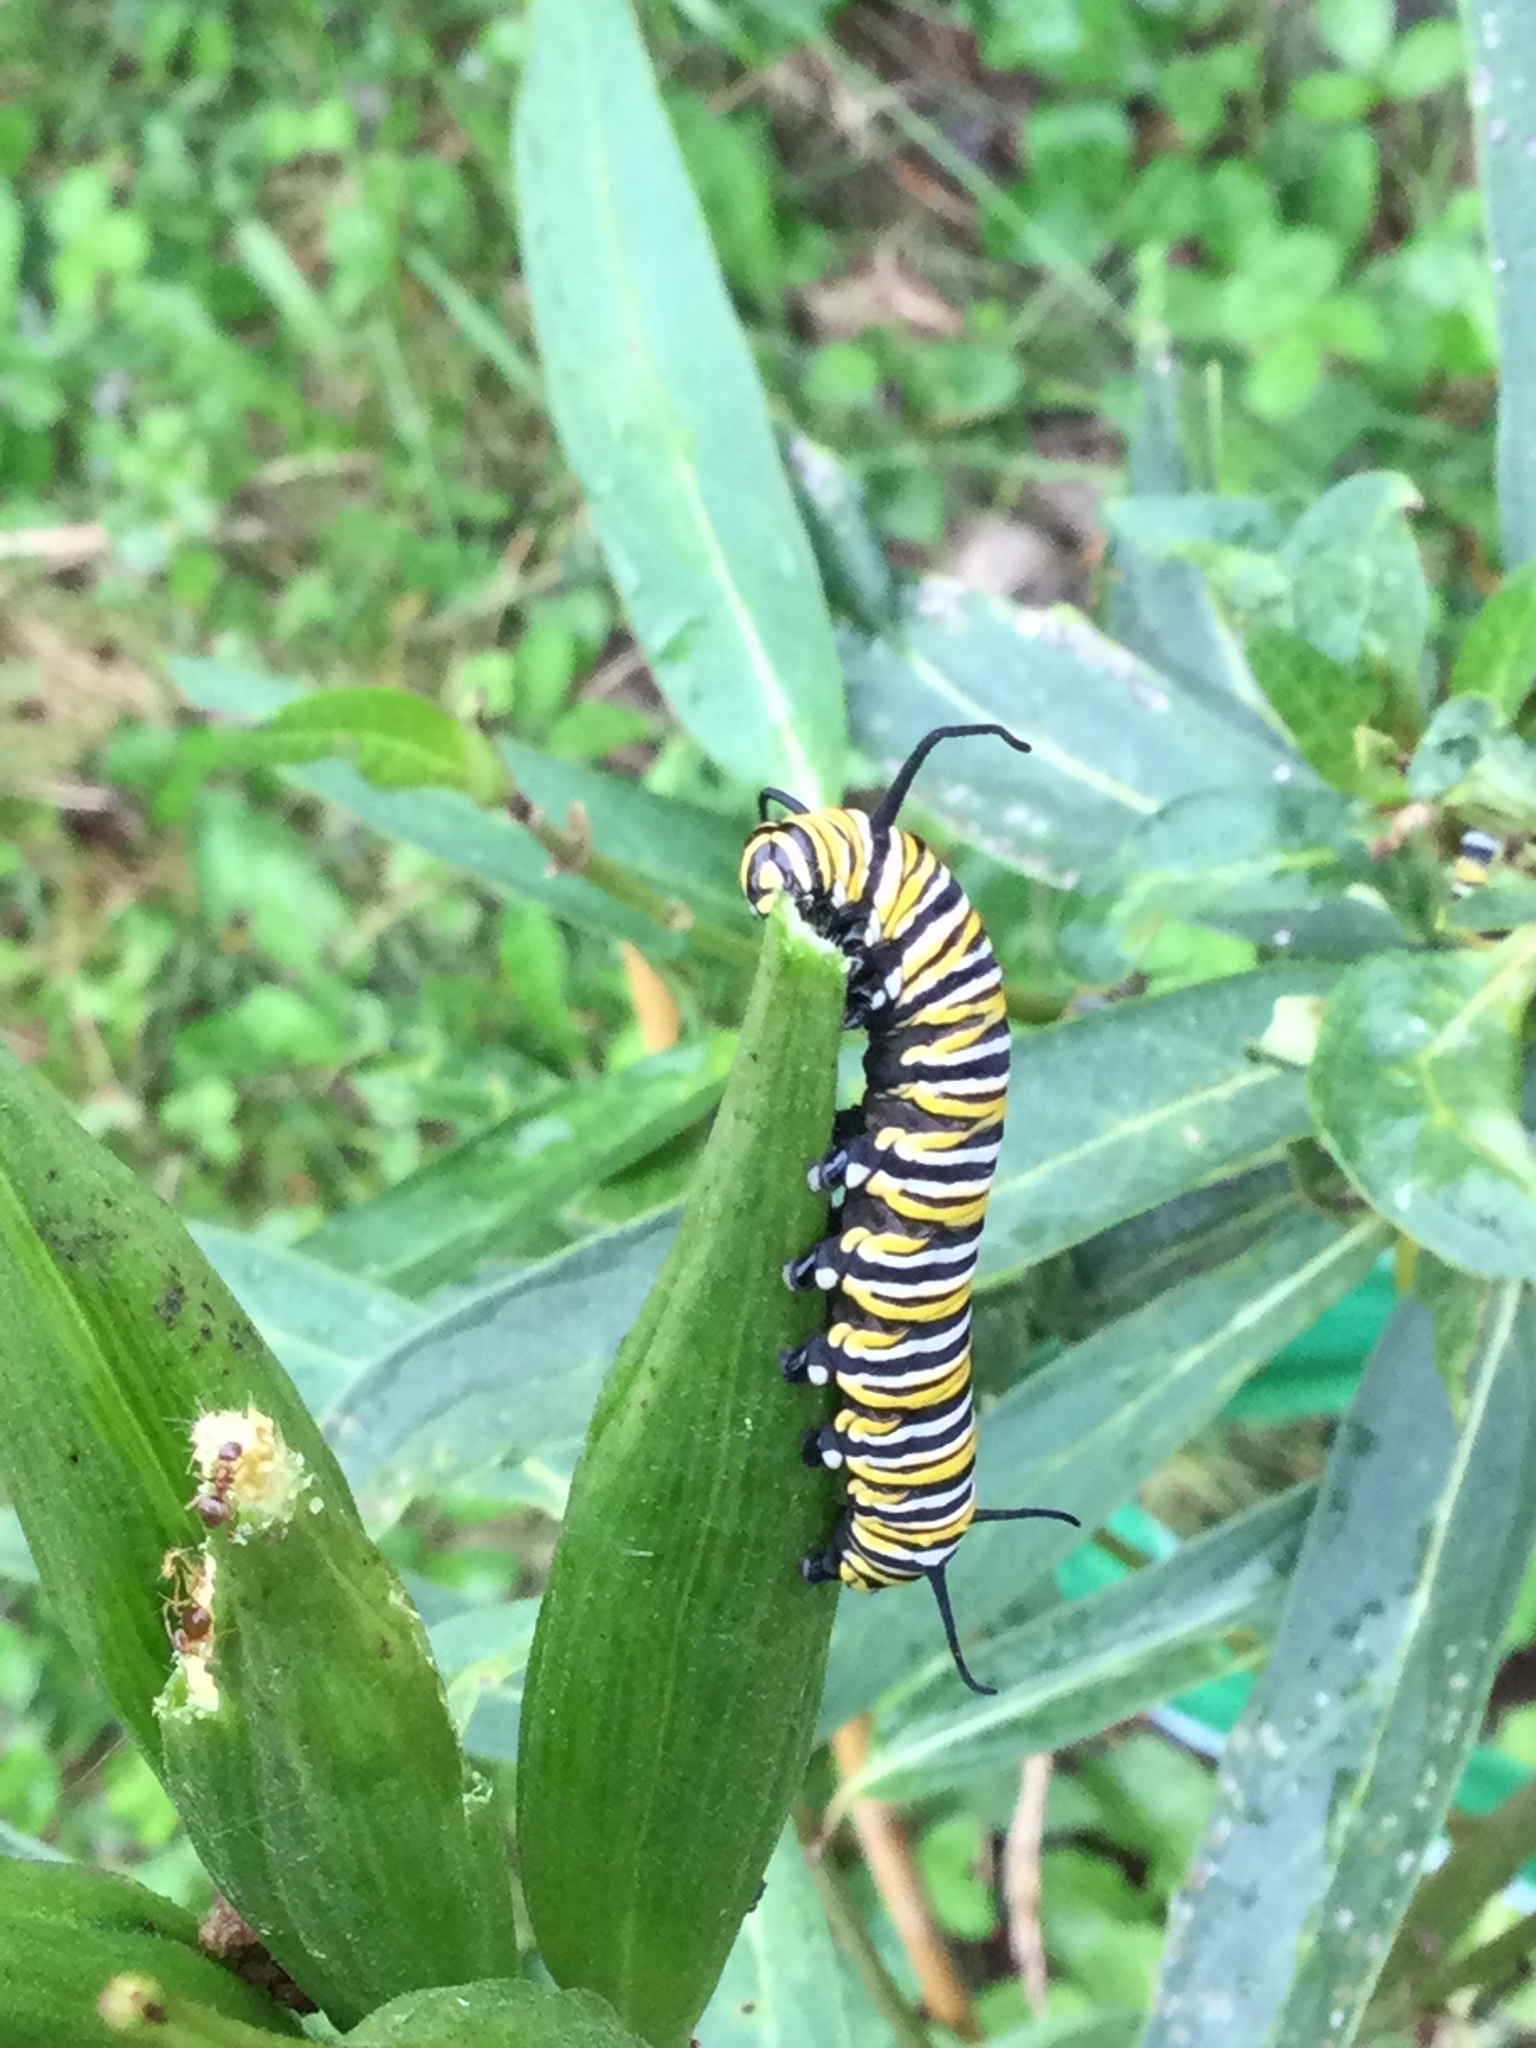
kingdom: Animalia
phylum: Arthropoda
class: Insecta
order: Lepidoptera
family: Nymphalidae
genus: Danaus
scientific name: Danaus plexippus
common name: Monarch
